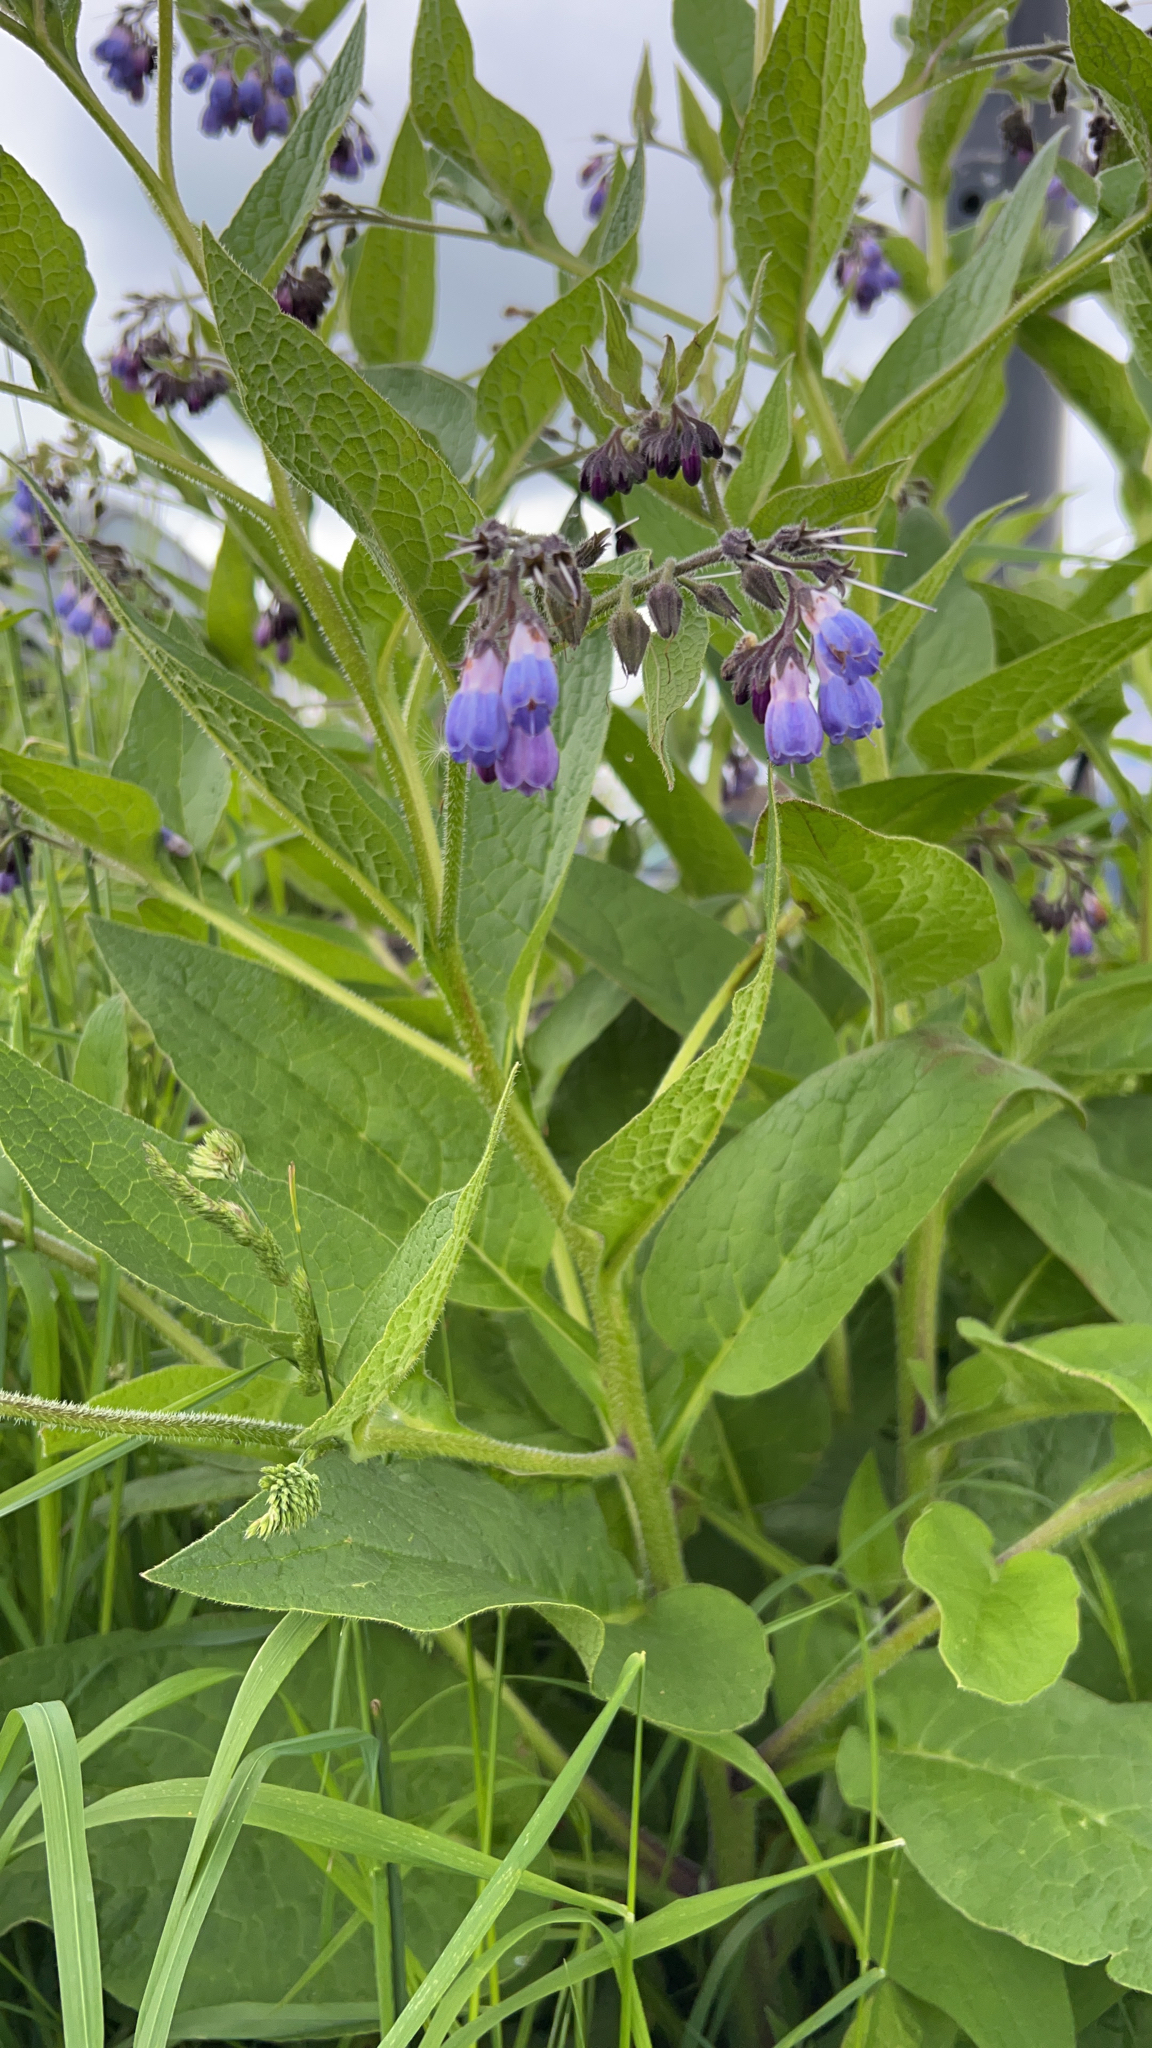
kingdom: Plantae
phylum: Tracheophyta
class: Magnoliopsida
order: Boraginales
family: Boraginaceae
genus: Symphytum
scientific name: Symphytum uplandicum
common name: Russian comfrey
